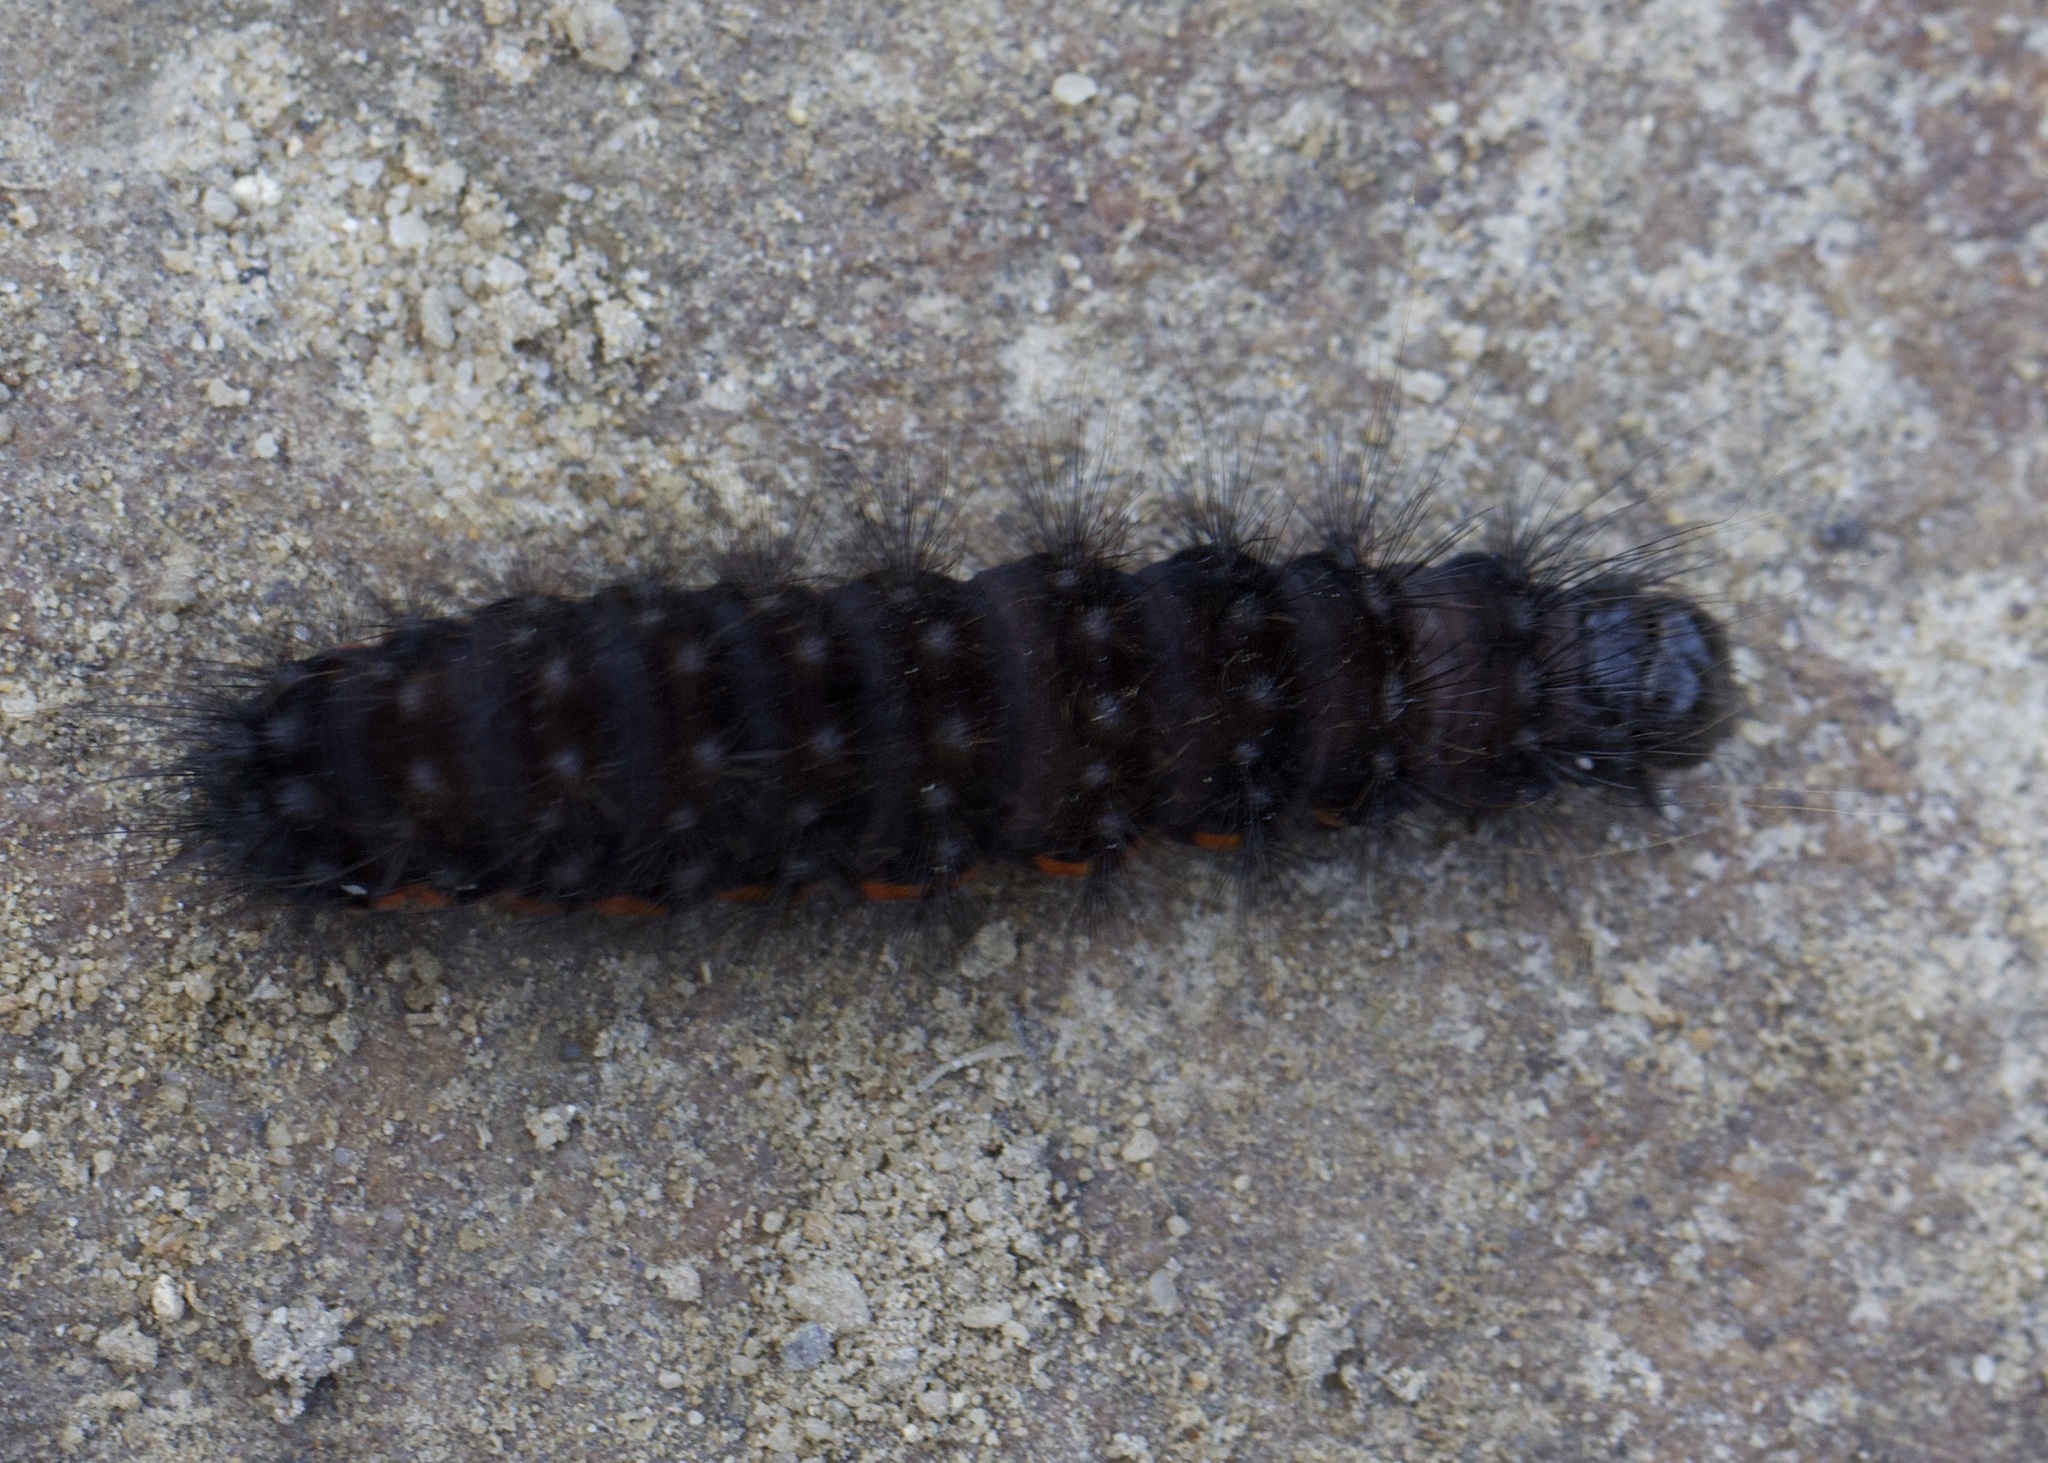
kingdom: Animalia
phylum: Arthropoda
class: Insecta
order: Lepidoptera
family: Noctuidae
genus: Acronicta
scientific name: Acronicta menyanthidis
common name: Light knot grass
